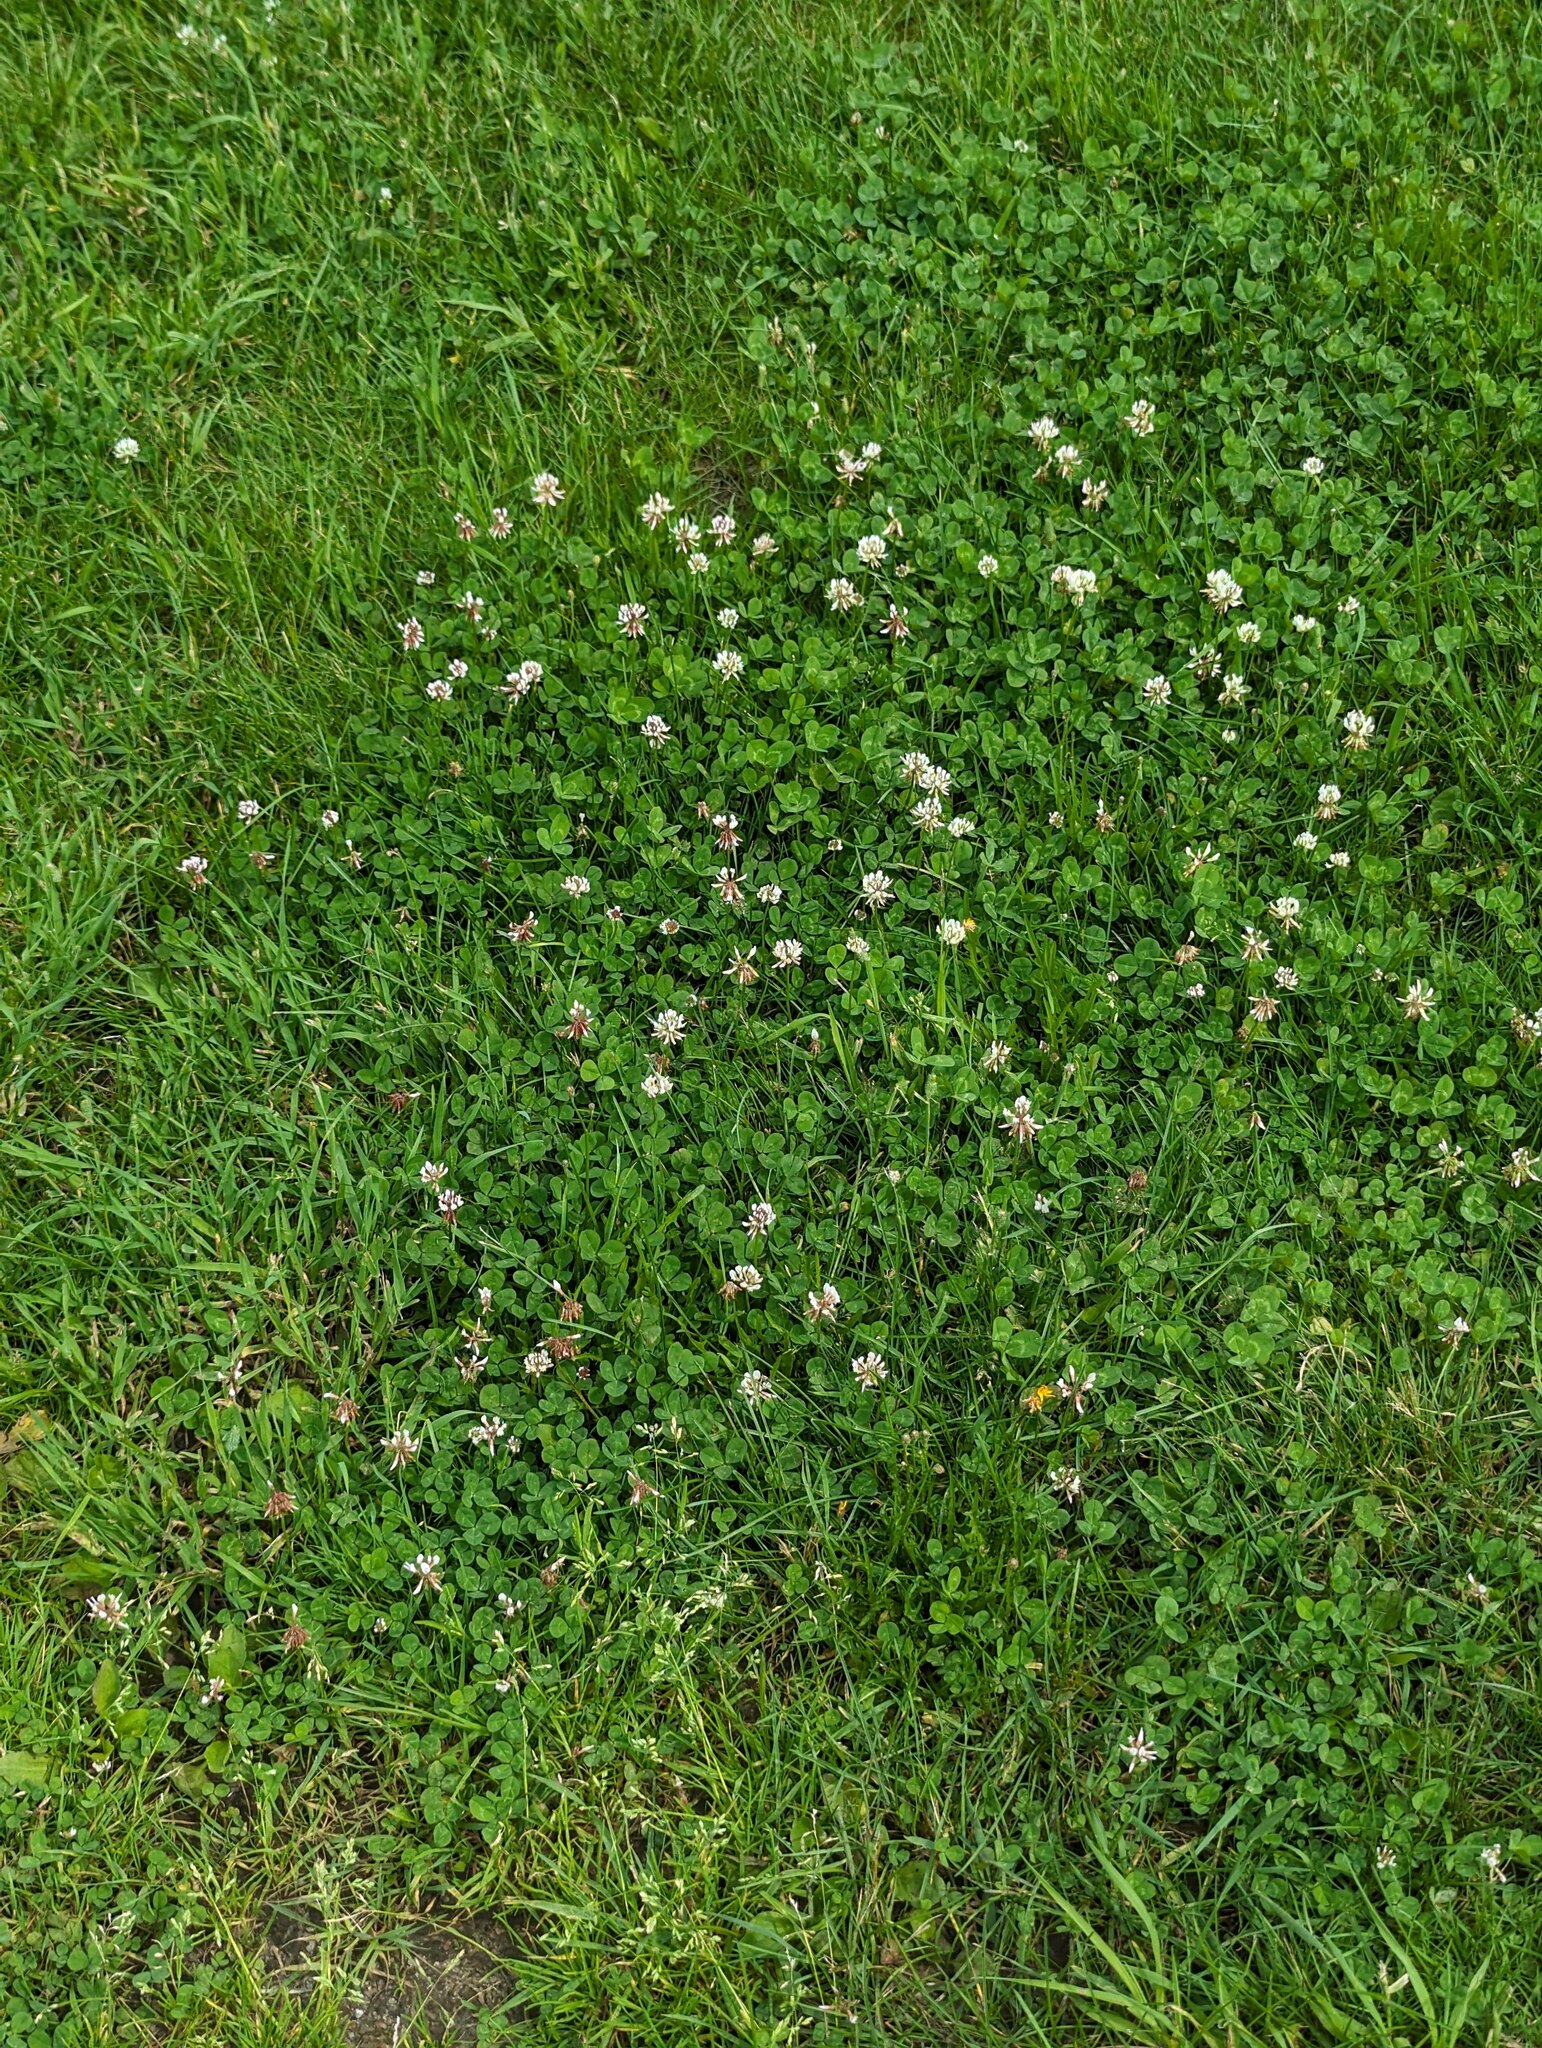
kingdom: Plantae
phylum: Tracheophyta
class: Magnoliopsida
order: Fabales
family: Fabaceae
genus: Trifolium
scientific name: Trifolium repens
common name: White clover
